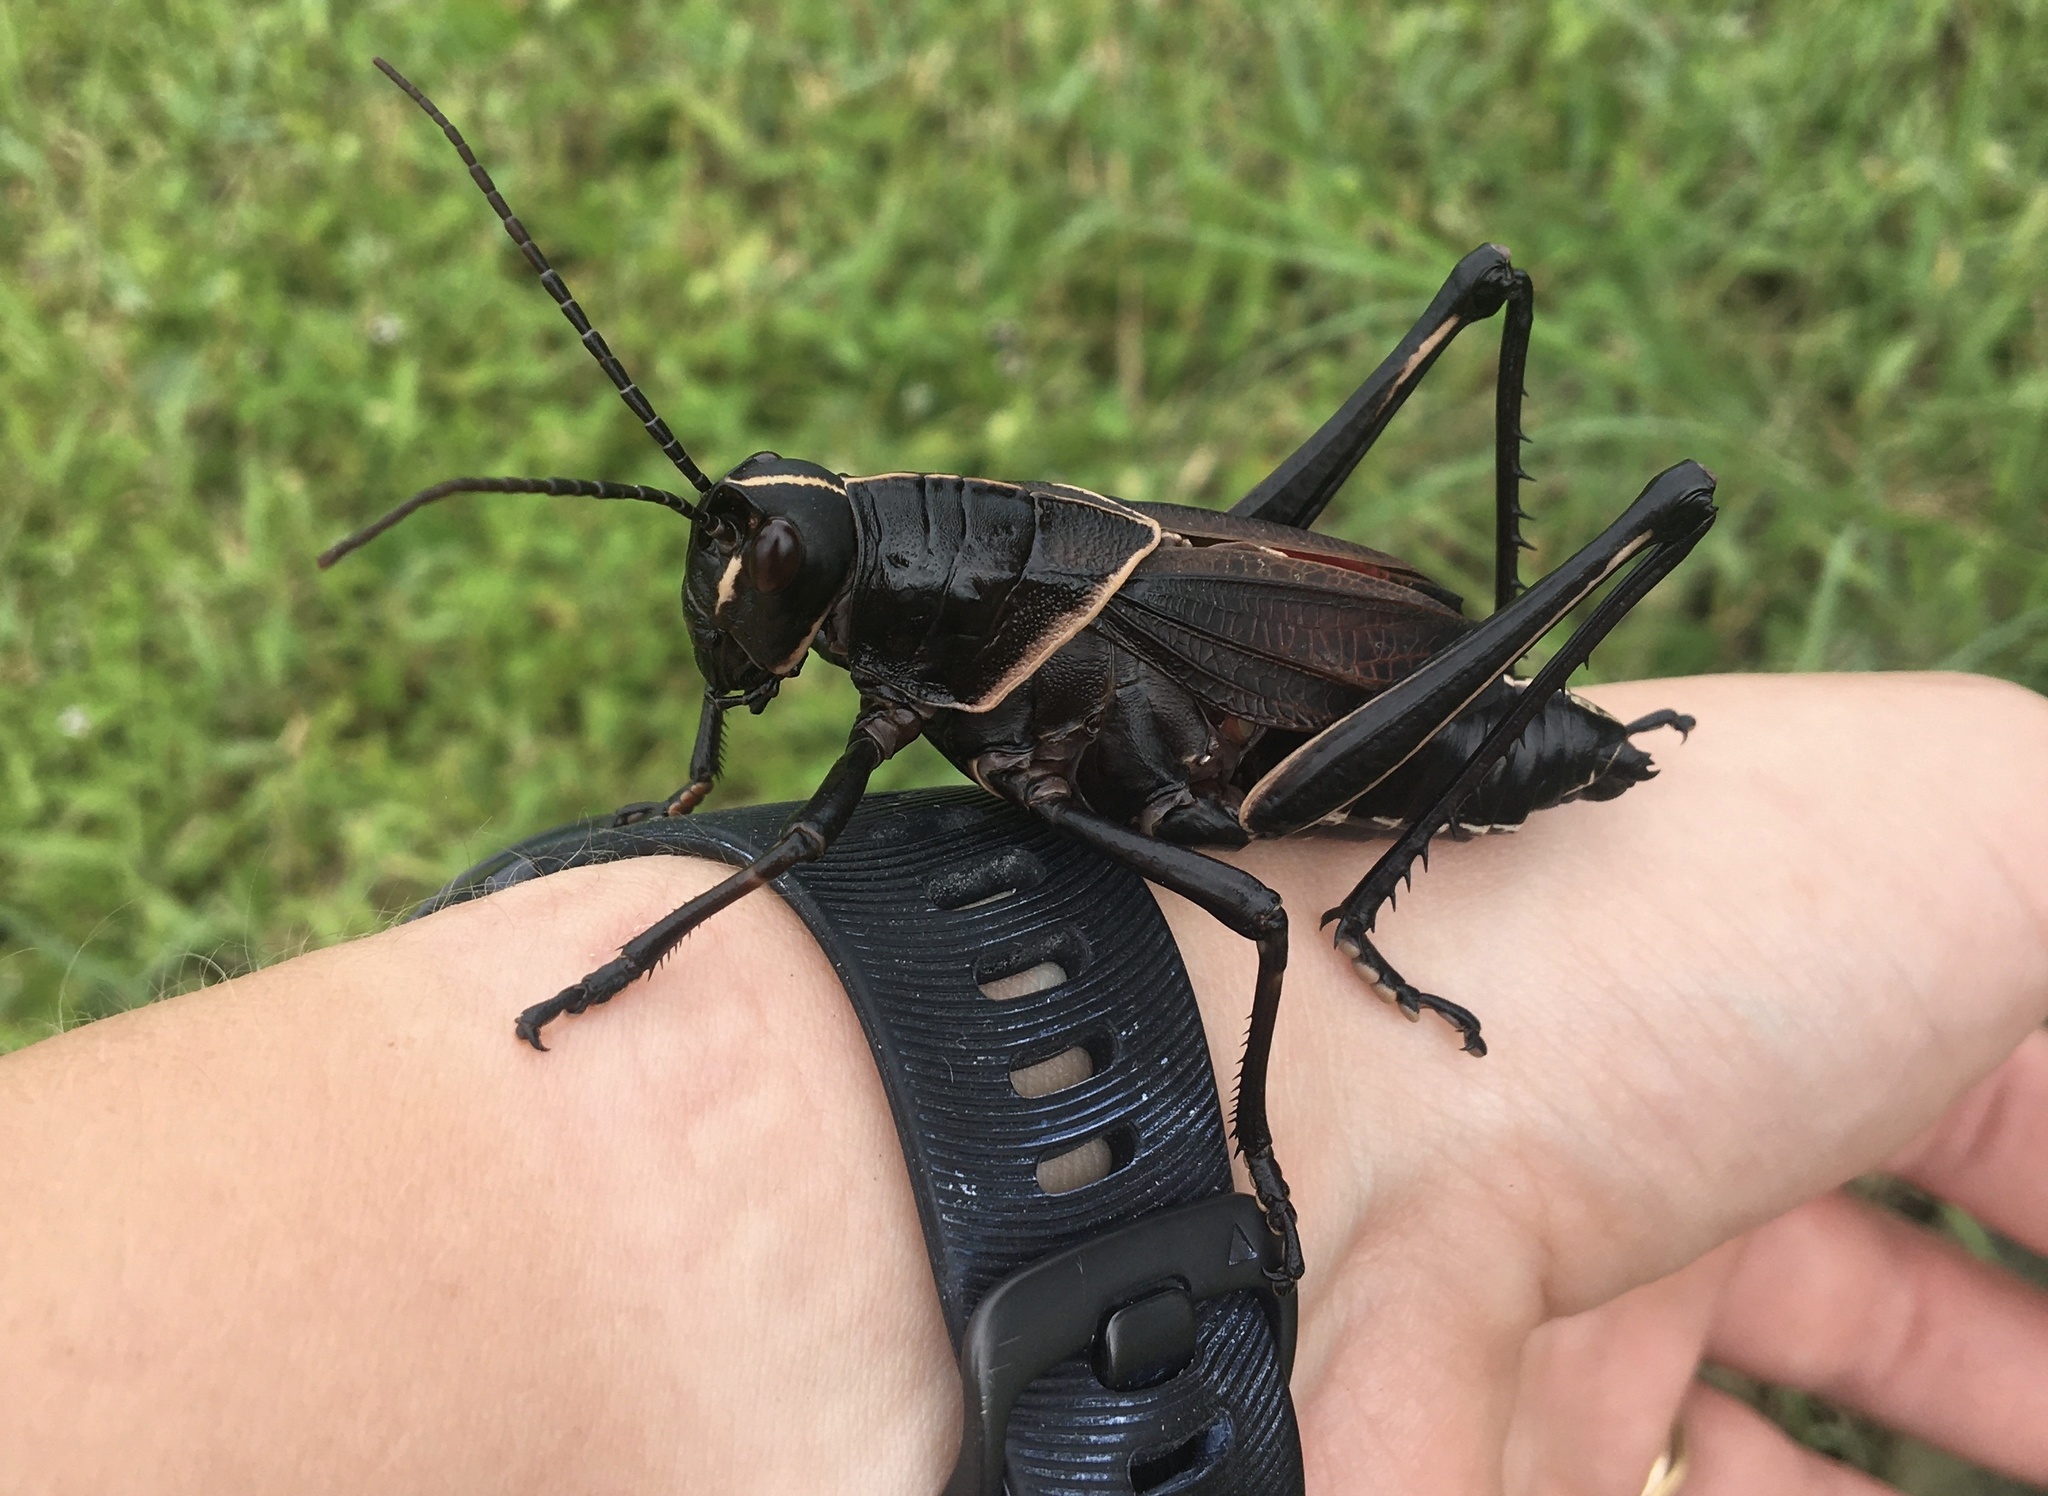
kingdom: Animalia
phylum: Arthropoda
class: Insecta
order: Orthoptera
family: Romaleidae
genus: Romalea
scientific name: Romalea microptera
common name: Eastern lubber grasshopper
